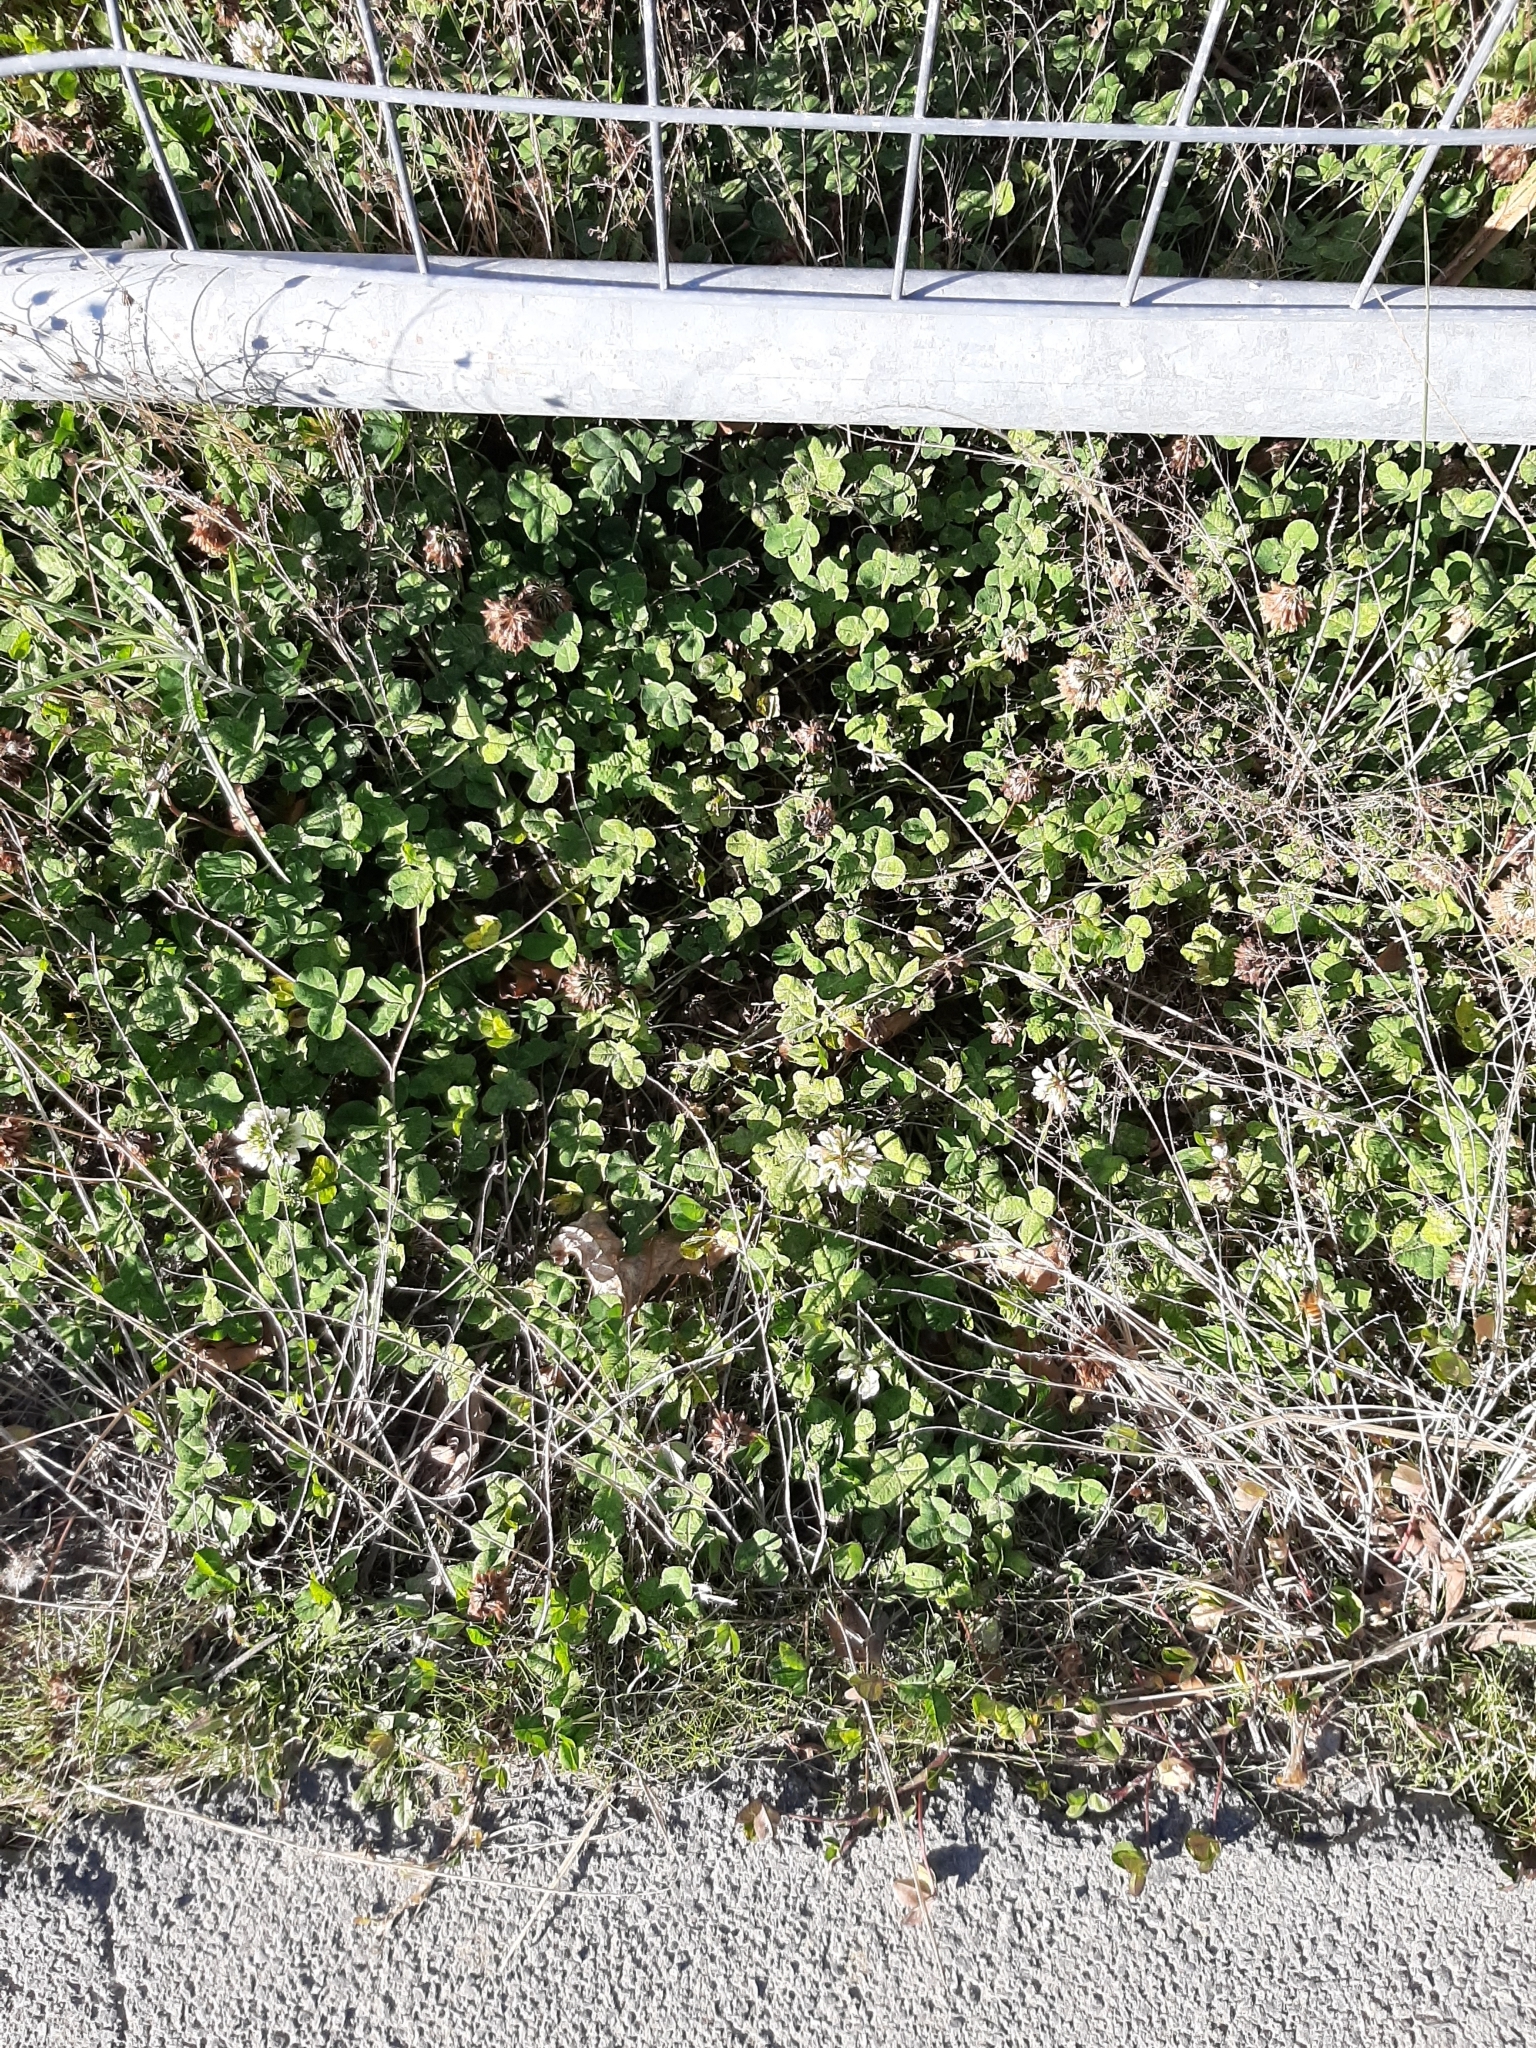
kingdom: Plantae
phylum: Tracheophyta
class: Magnoliopsida
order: Fabales
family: Fabaceae
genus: Trifolium
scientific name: Trifolium repens
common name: White clover
